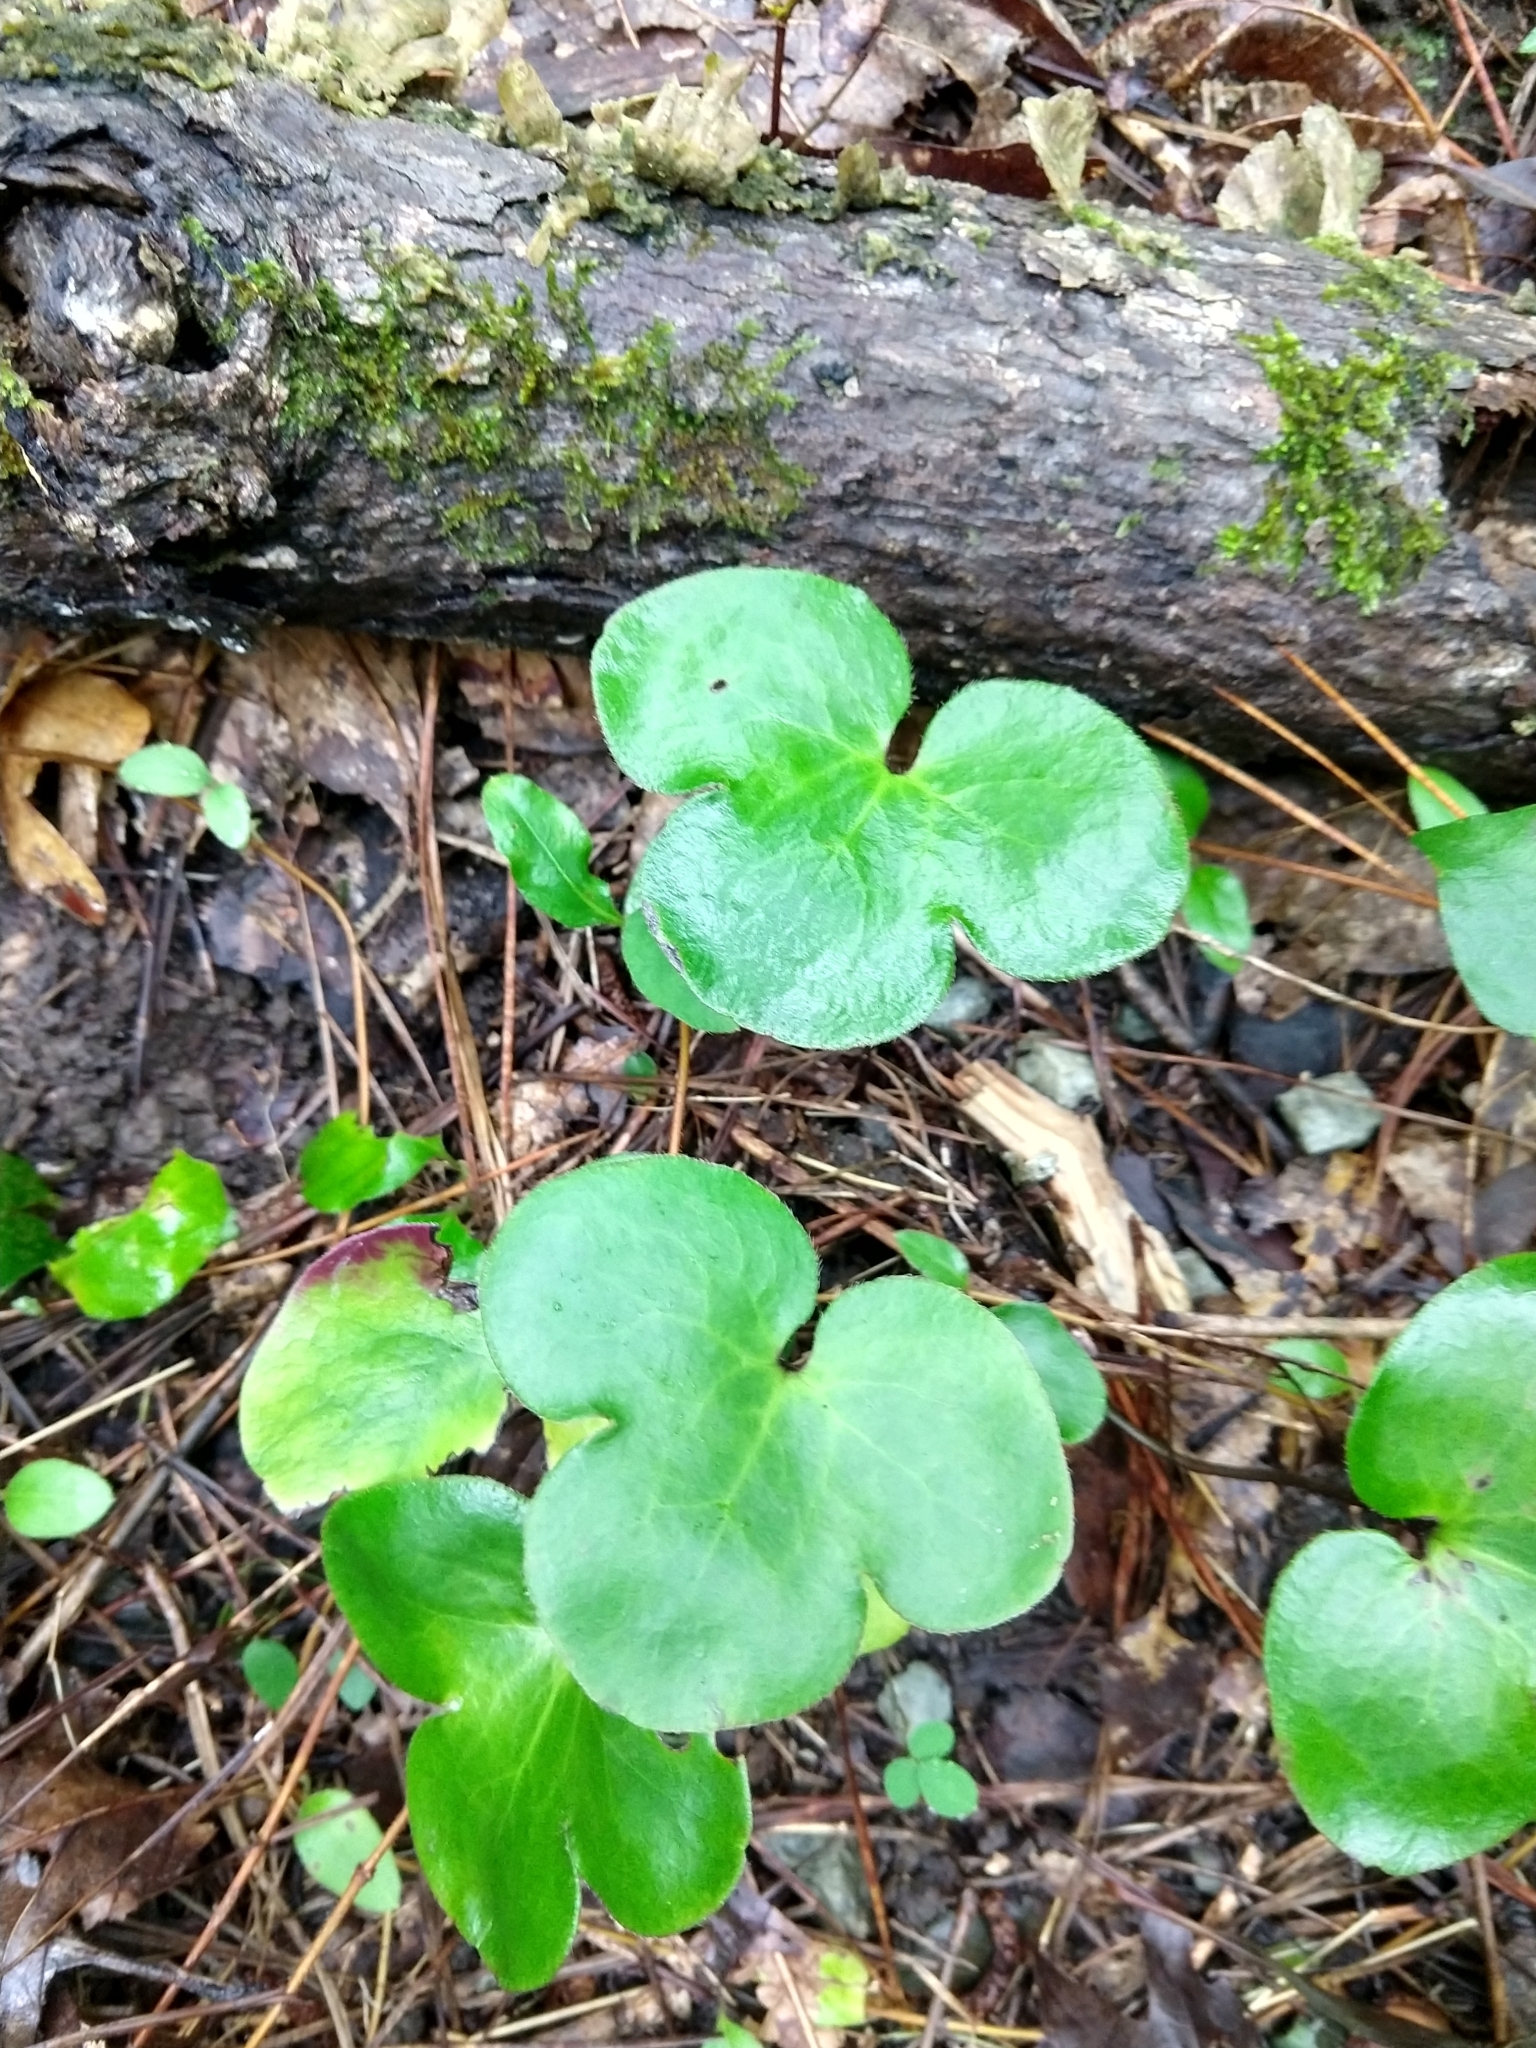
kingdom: Plantae
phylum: Tracheophyta
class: Magnoliopsida
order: Ranunculales
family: Ranunculaceae
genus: Hepatica
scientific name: Hepatica americana
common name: American hepatica
